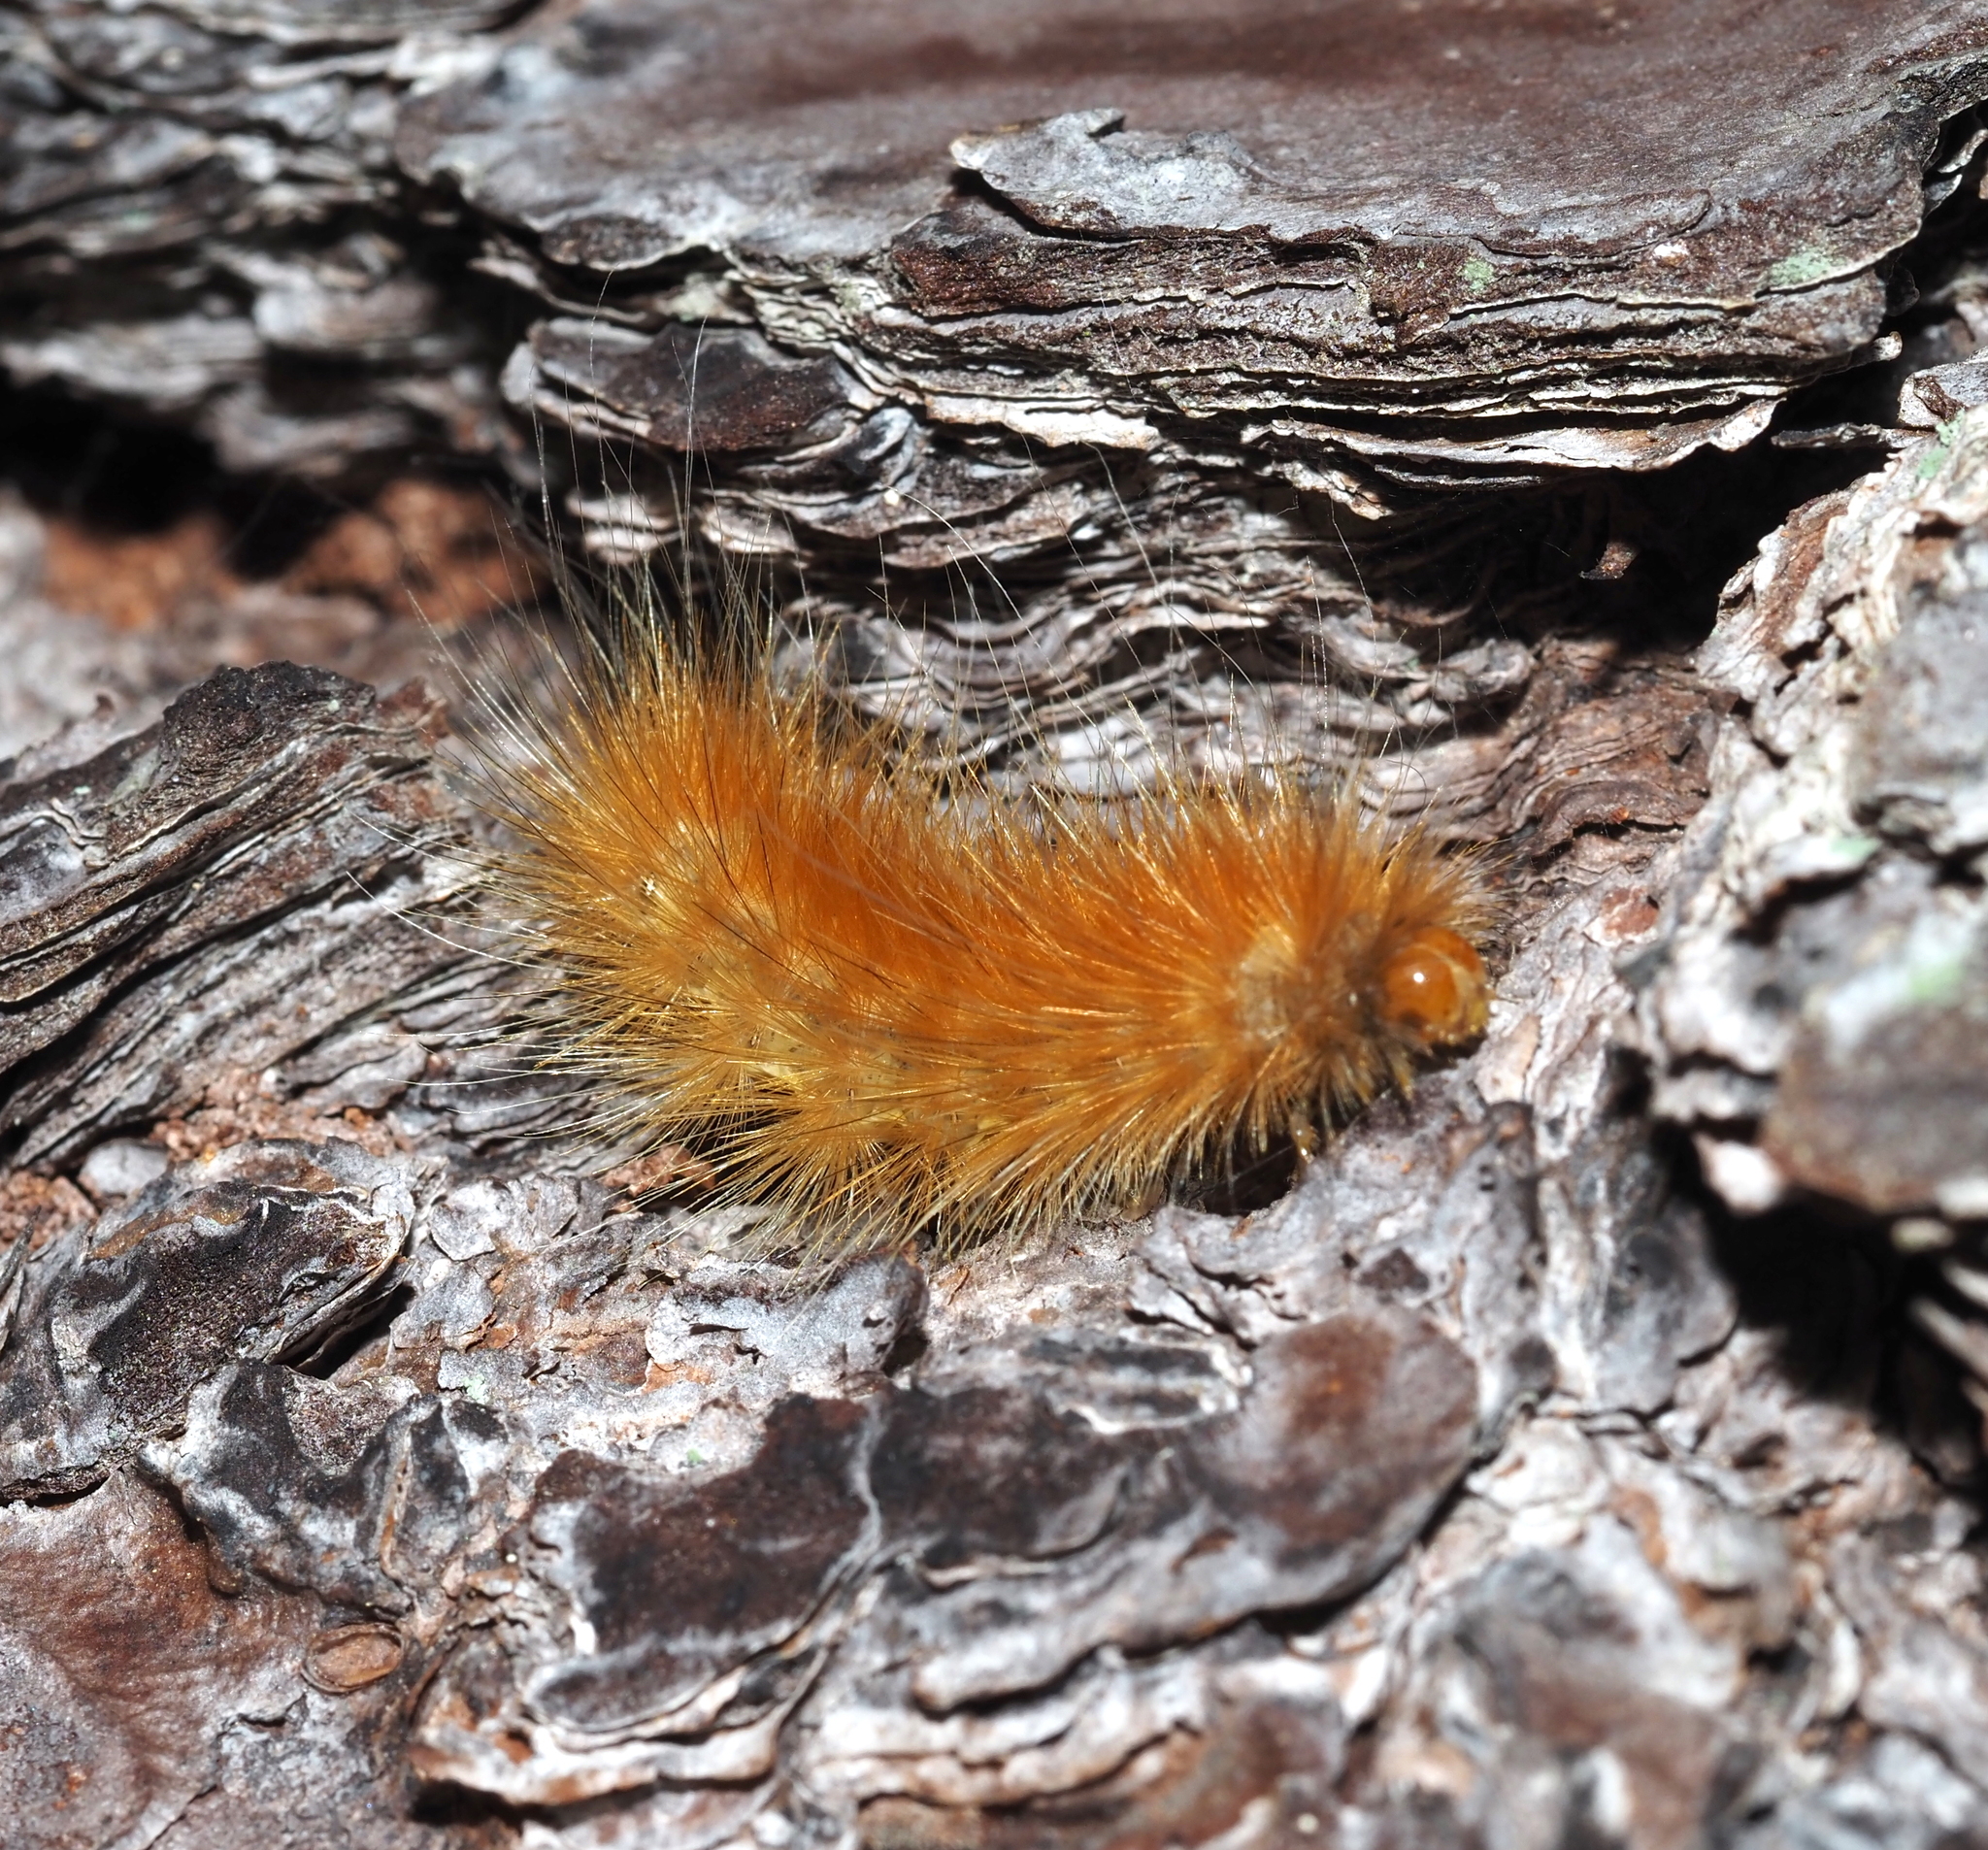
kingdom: Animalia
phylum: Arthropoda
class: Insecta
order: Lepidoptera
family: Erebidae
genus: Spilosoma
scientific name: Spilosoma virginica
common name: Virginia tiger moth
